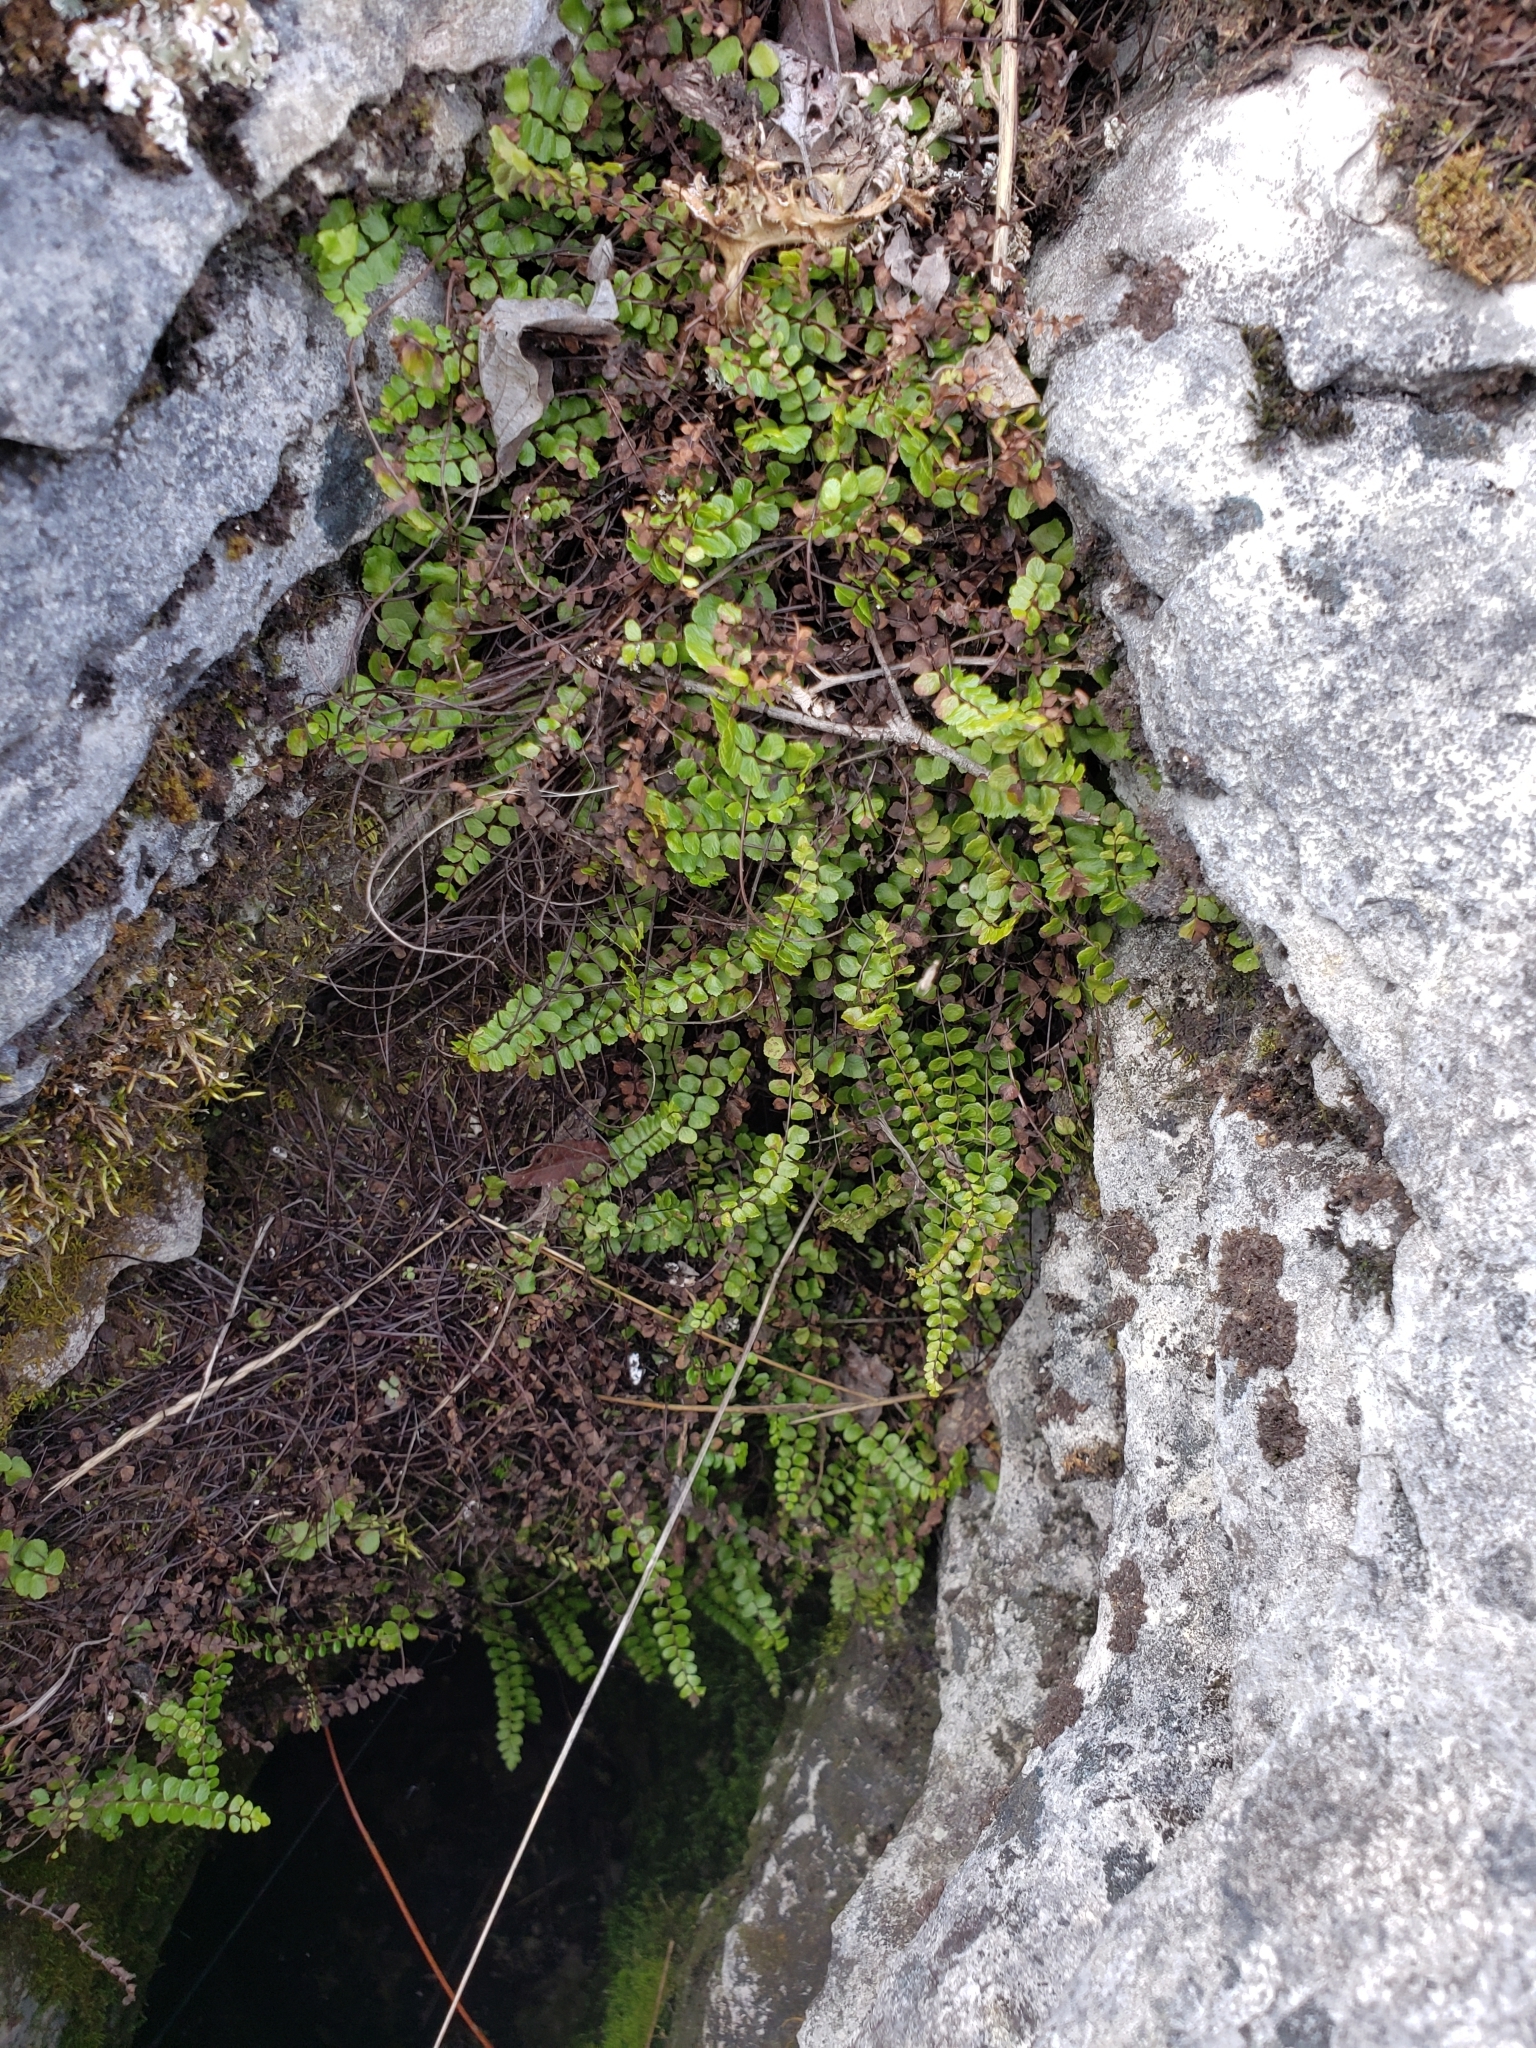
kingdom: Plantae
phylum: Tracheophyta
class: Polypodiopsida
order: Polypodiales
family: Aspleniaceae
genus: Asplenium
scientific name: Asplenium trichomanes
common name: Maidenhair spleenwort
